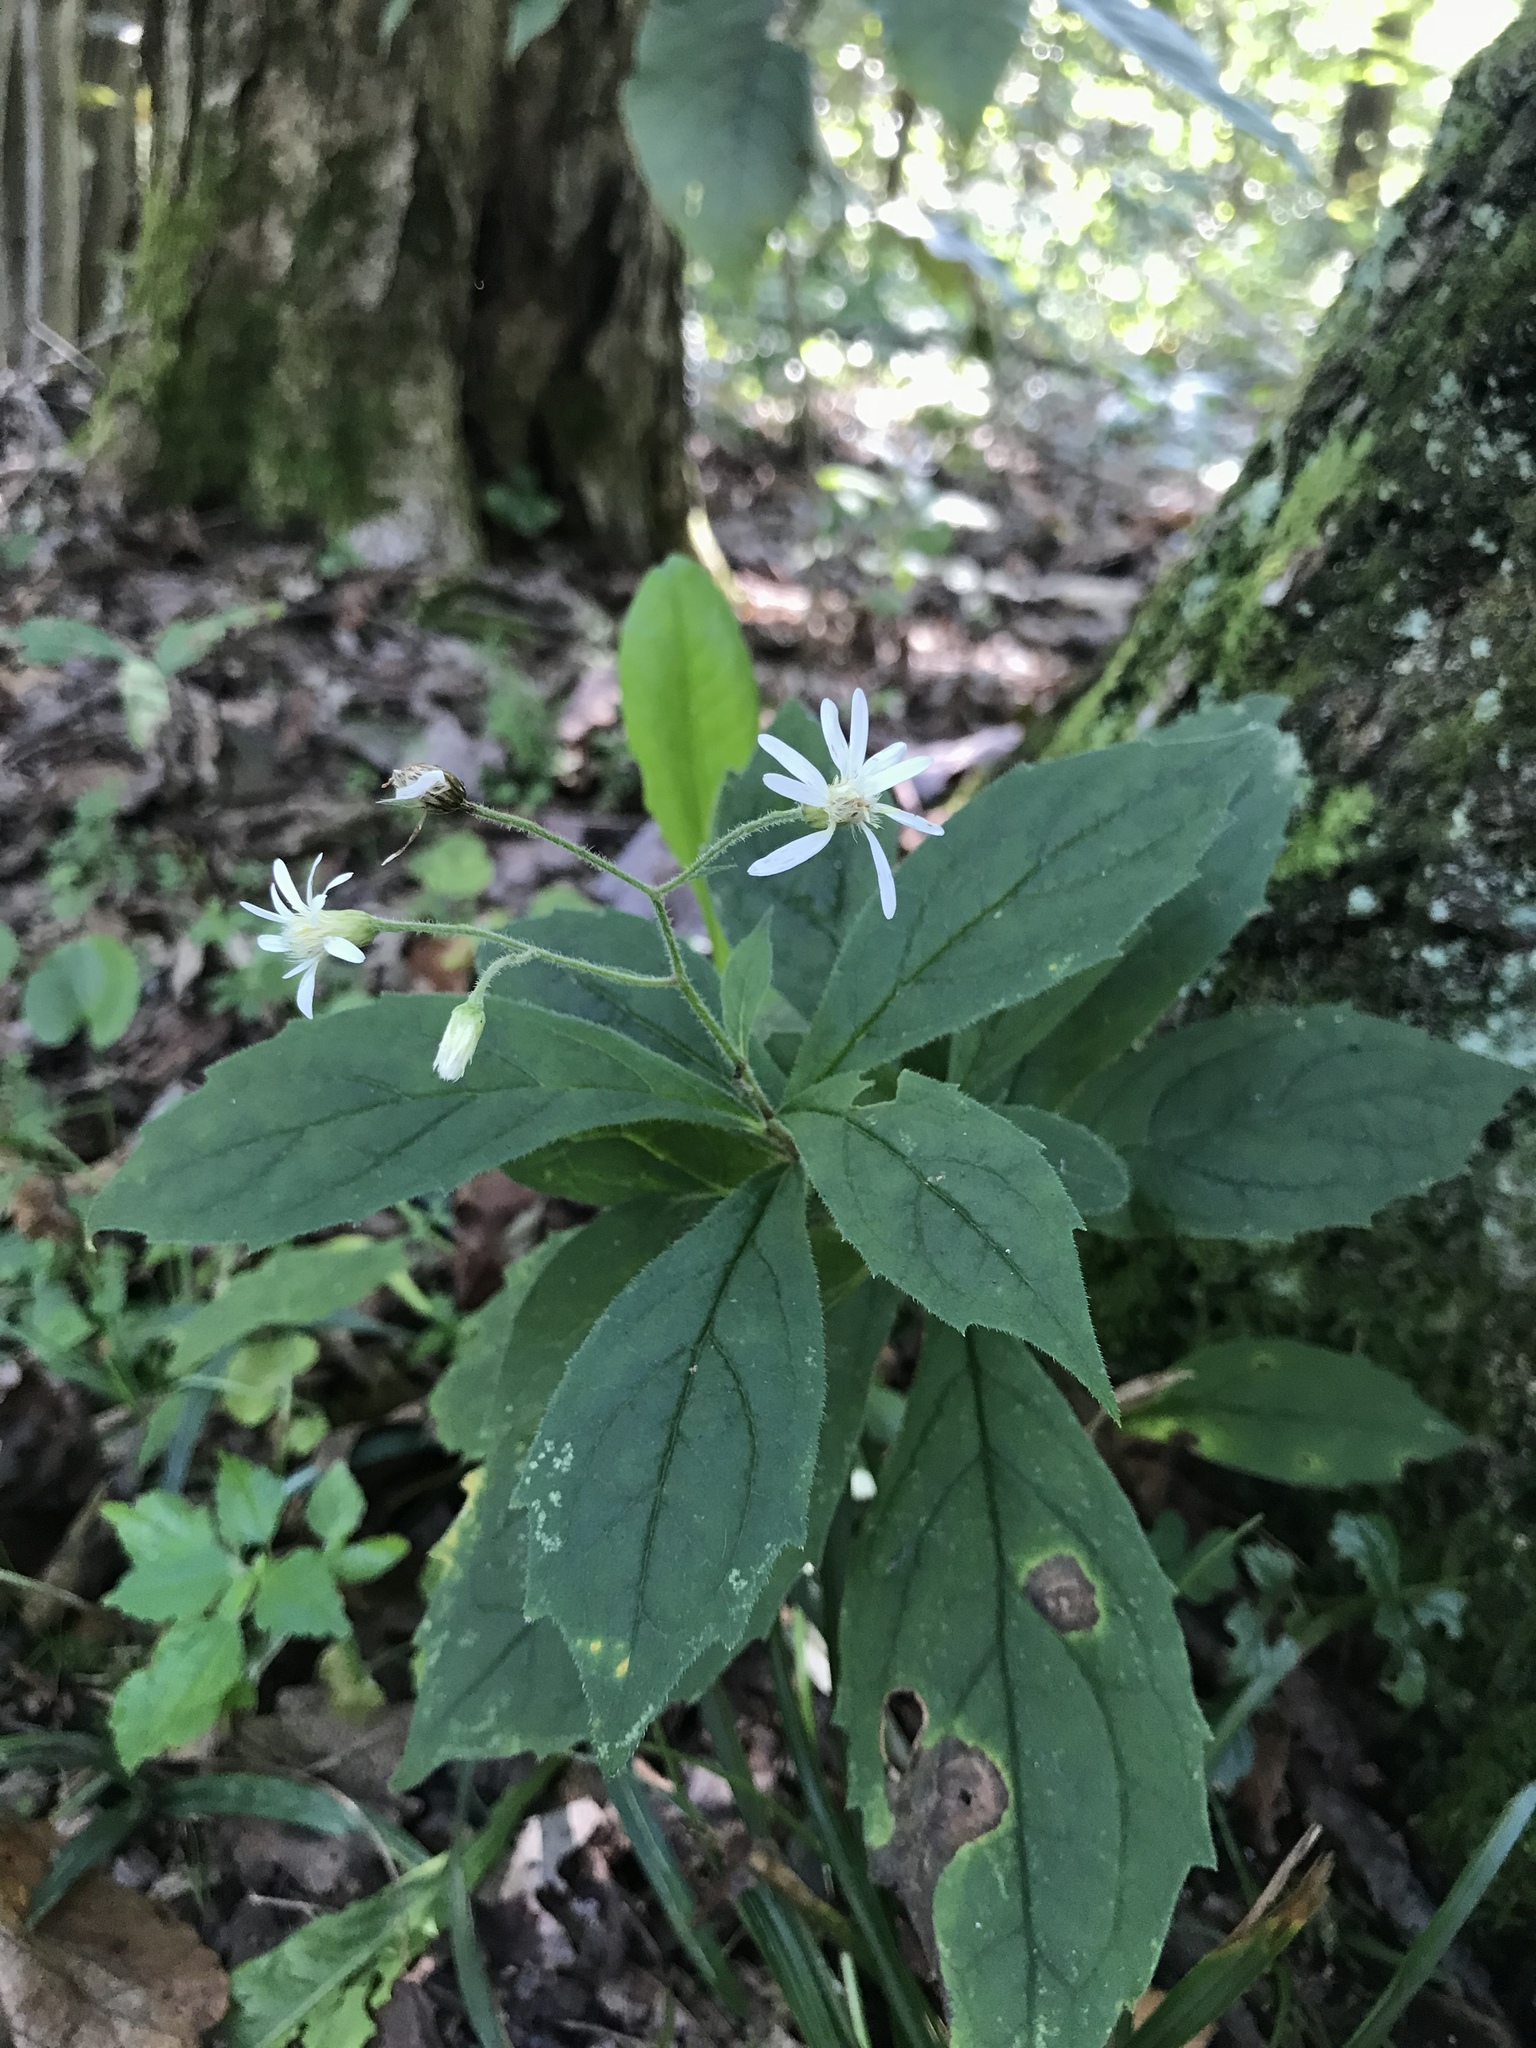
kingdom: Plantae
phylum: Tracheophyta
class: Magnoliopsida
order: Asterales
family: Asteraceae
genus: Oclemena
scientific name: Oclemena acuminata
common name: Mountain aster
